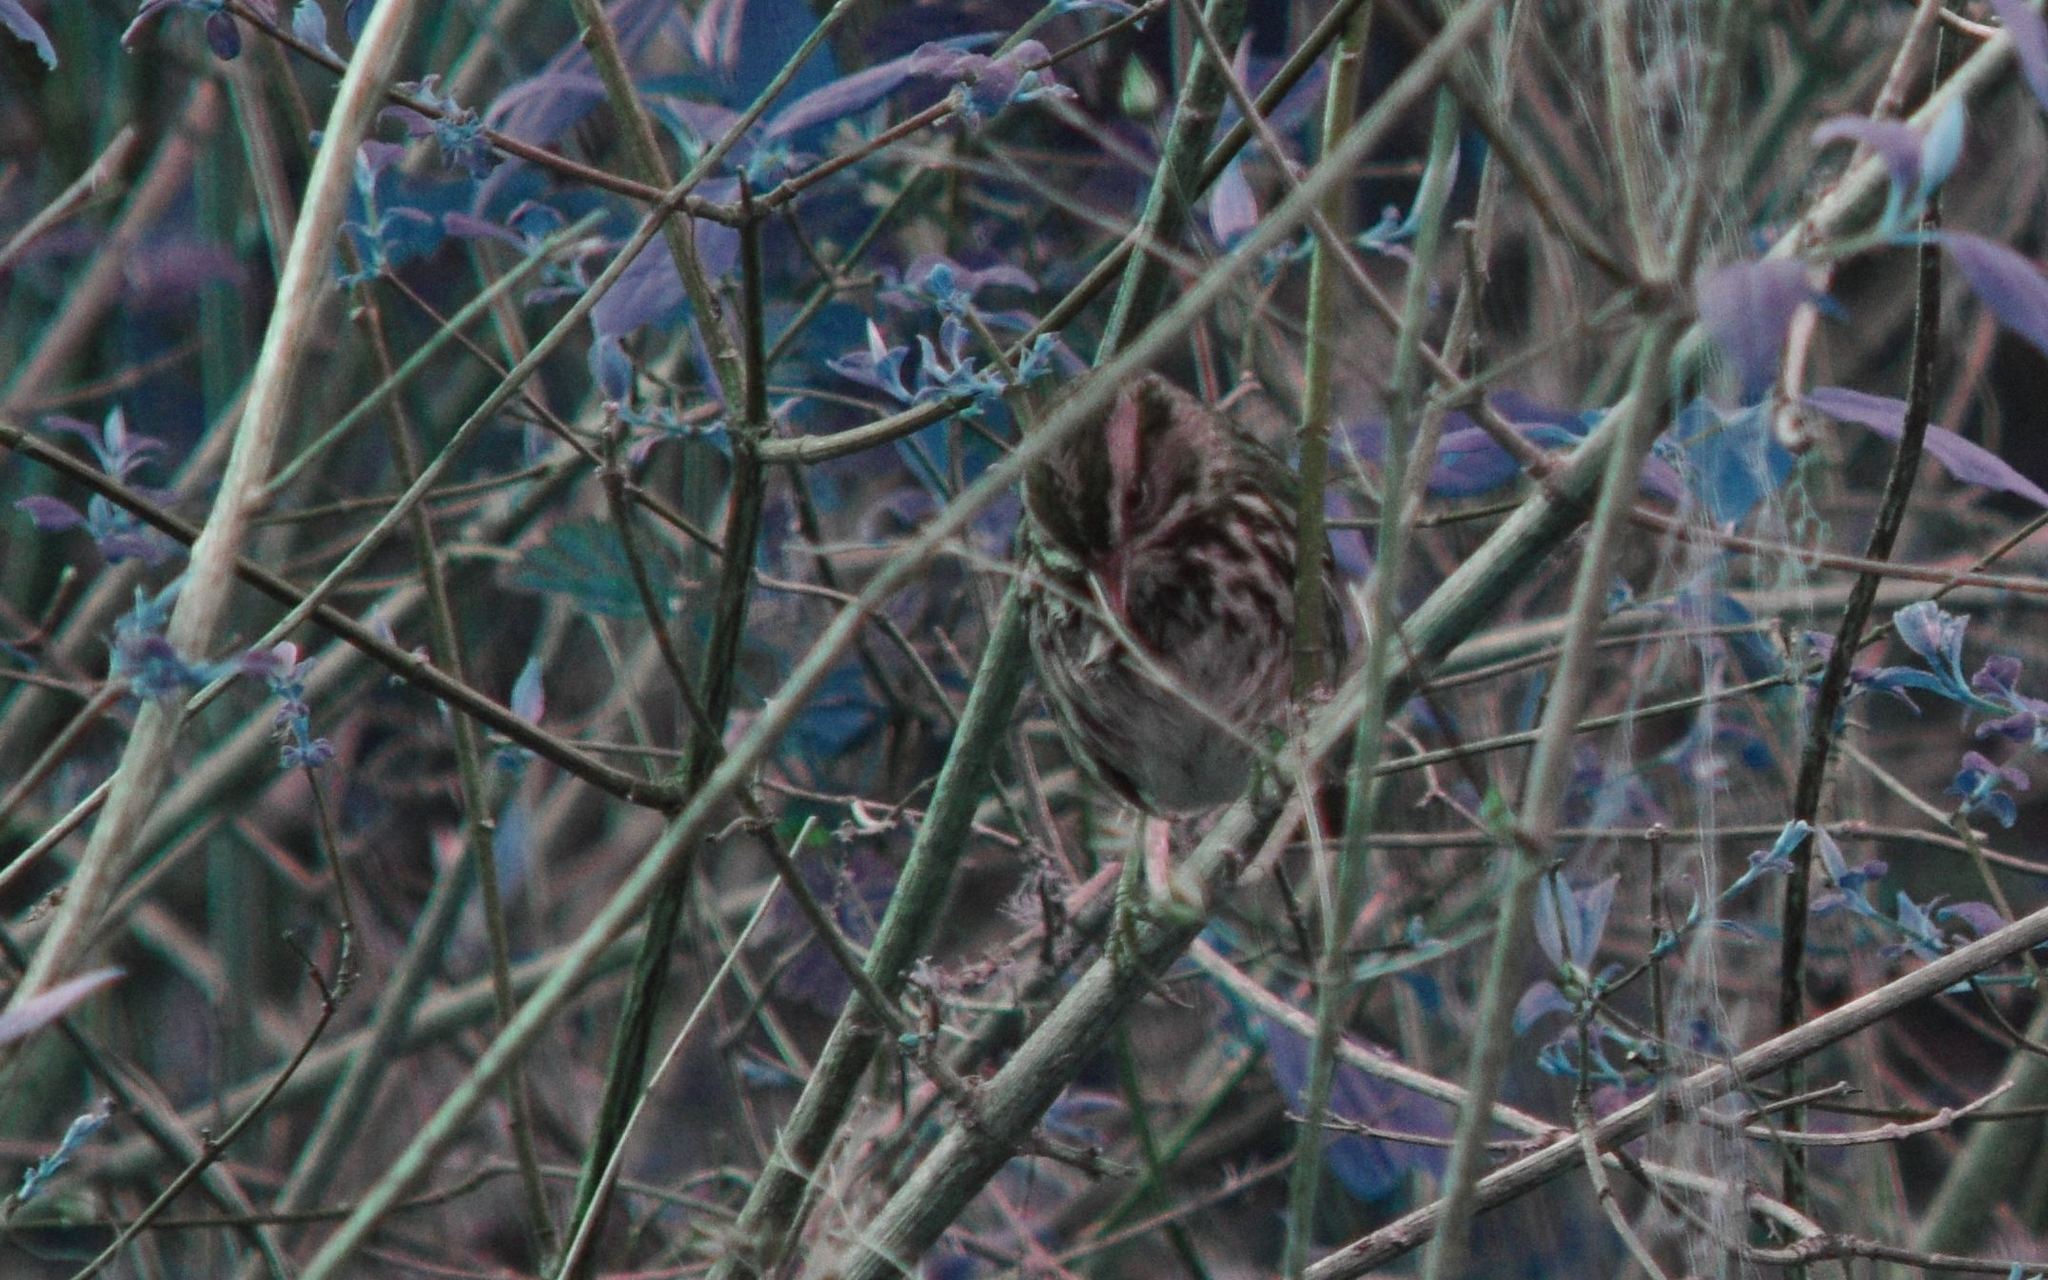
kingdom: Animalia
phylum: Chordata
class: Aves
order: Passeriformes
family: Passerellidae
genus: Melospiza
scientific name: Melospiza melodia
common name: Song sparrow
